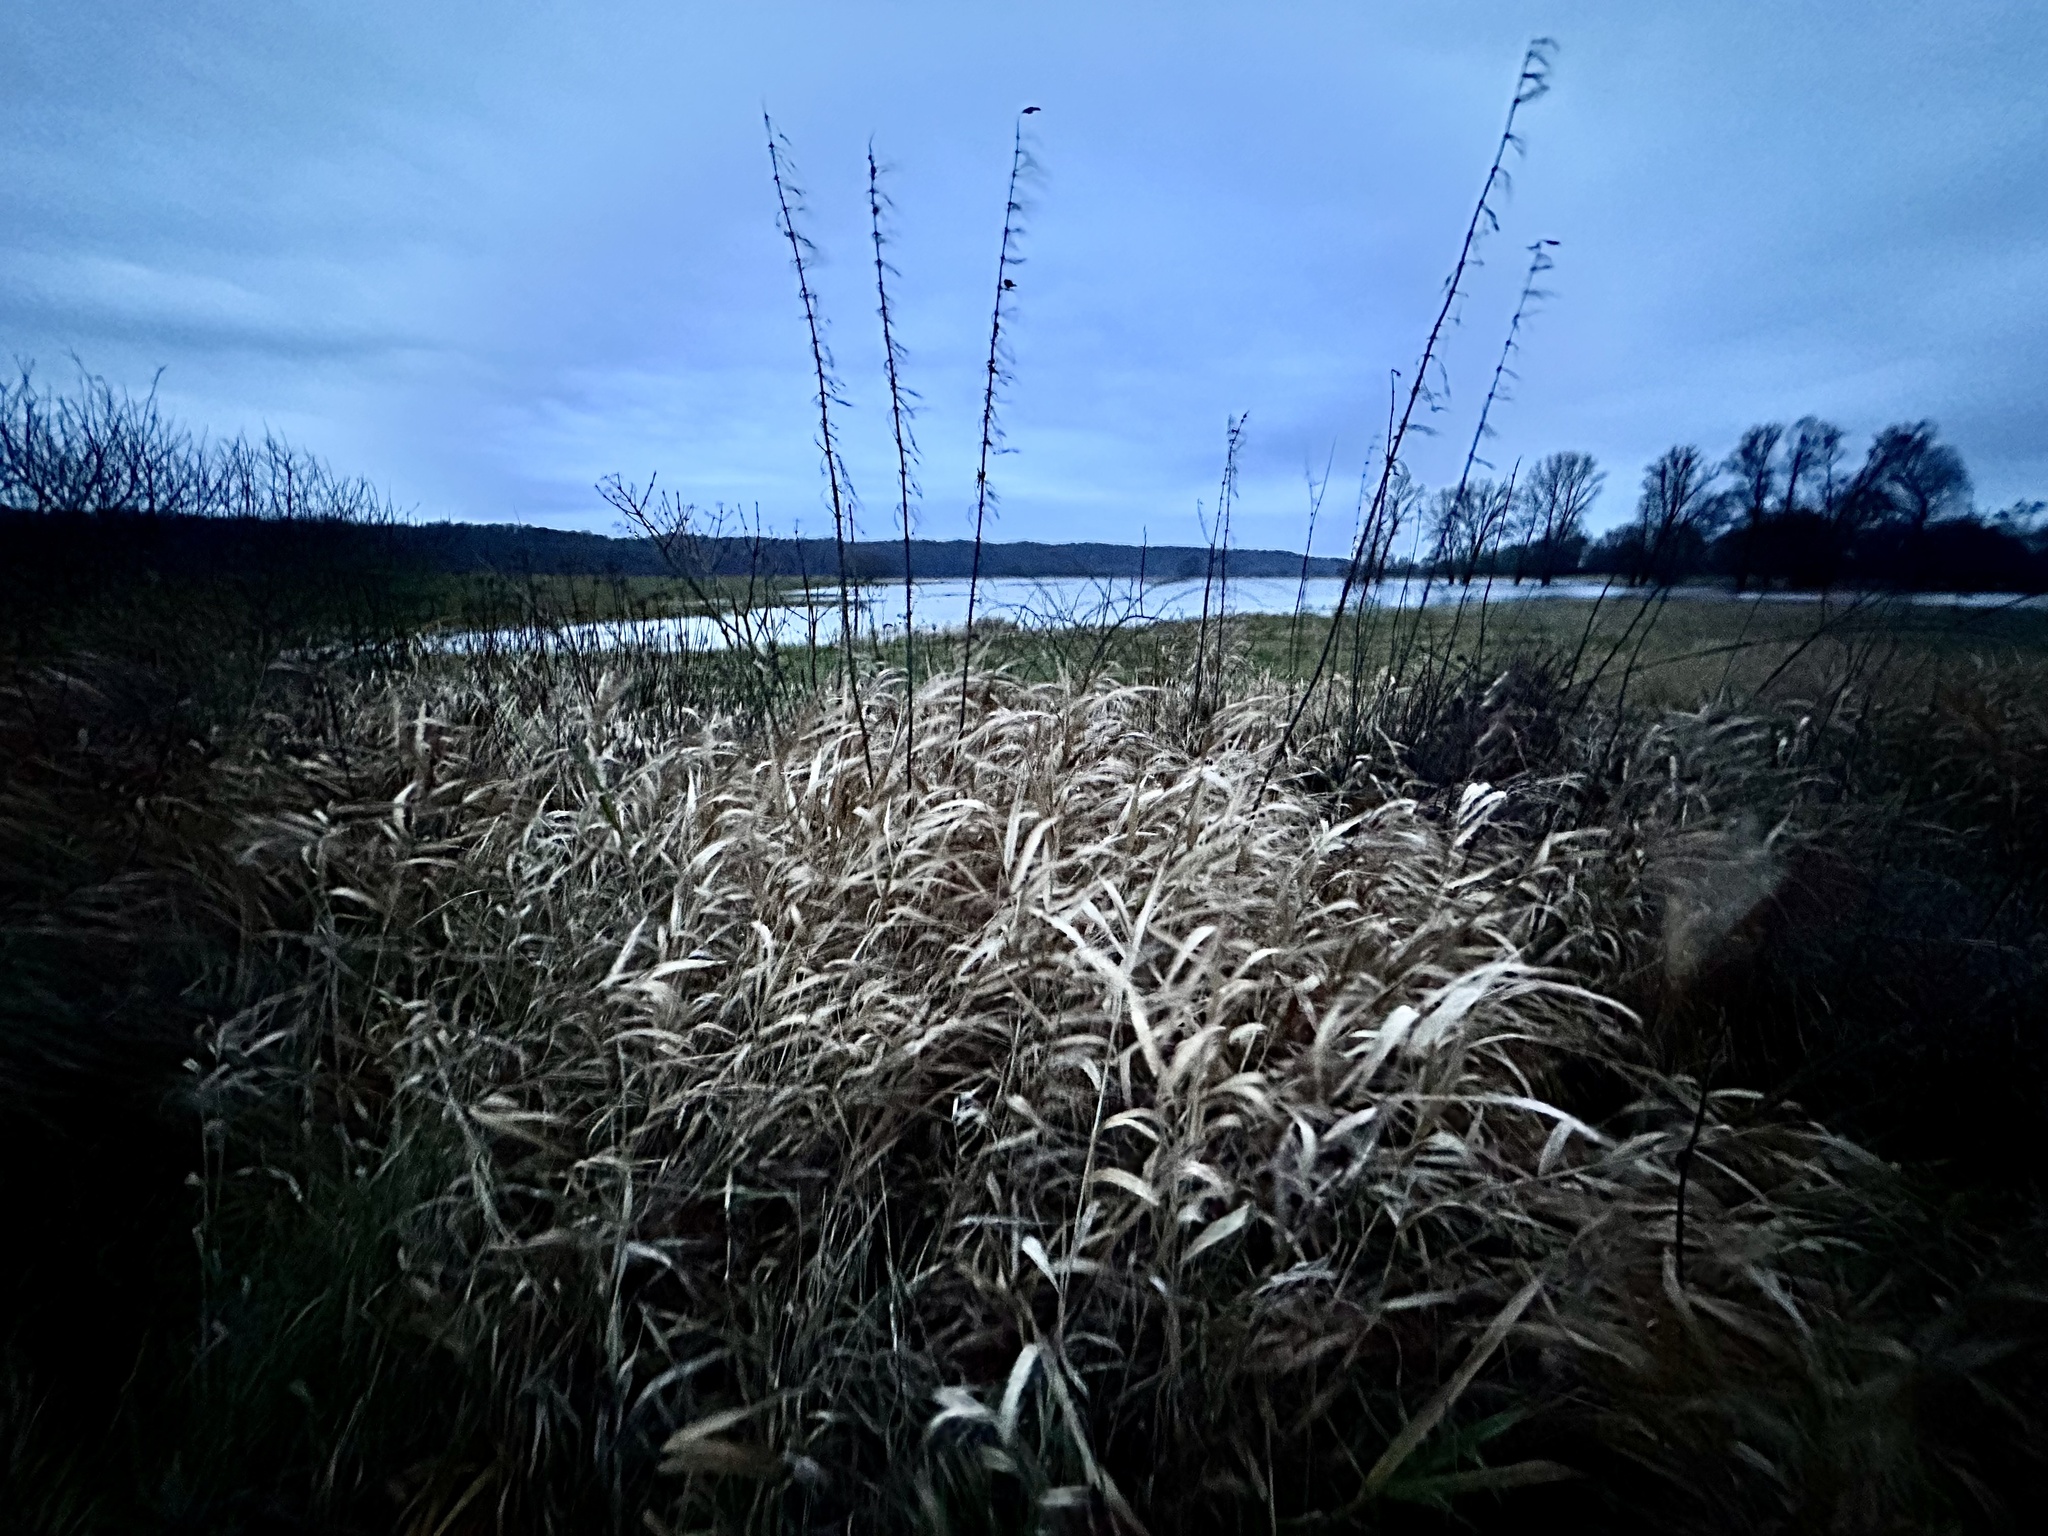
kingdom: Plantae
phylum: Tracheophyta
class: Liliopsida
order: Poales
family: Poaceae
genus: Phalaris
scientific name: Phalaris arundinacea
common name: Reed canary-grass
